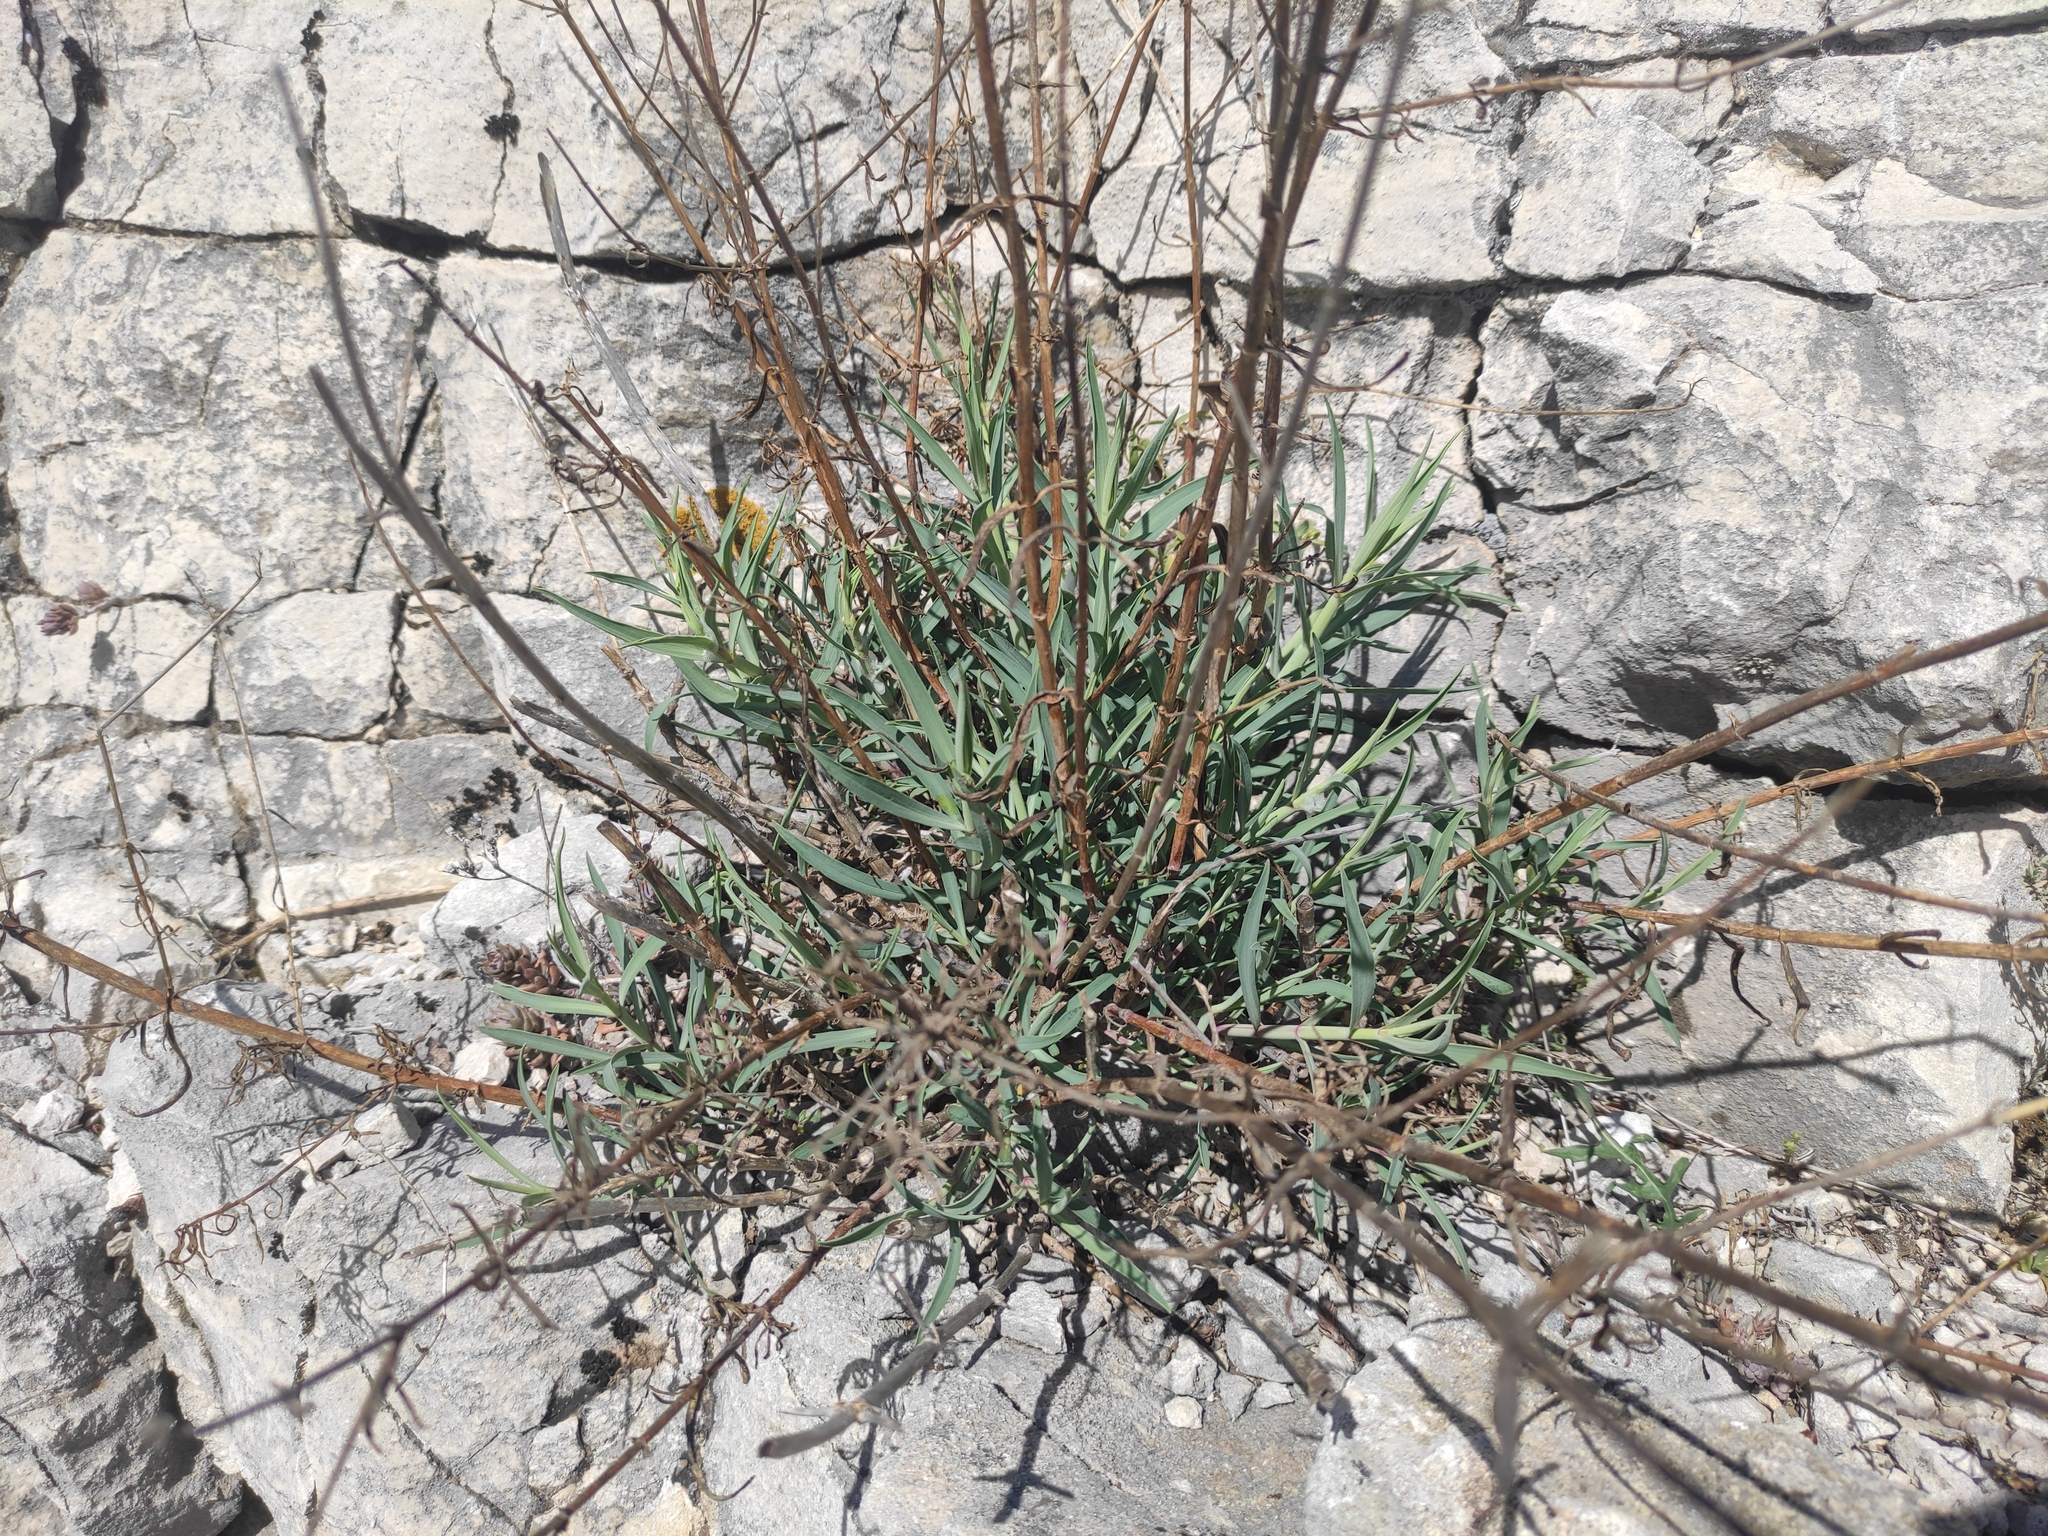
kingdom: Plantae
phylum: Tracheophyta
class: Magnoliopsida
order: Dipsacales
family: Caprifoliaceae
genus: Centranthus
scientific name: Centranthus lecoqii
